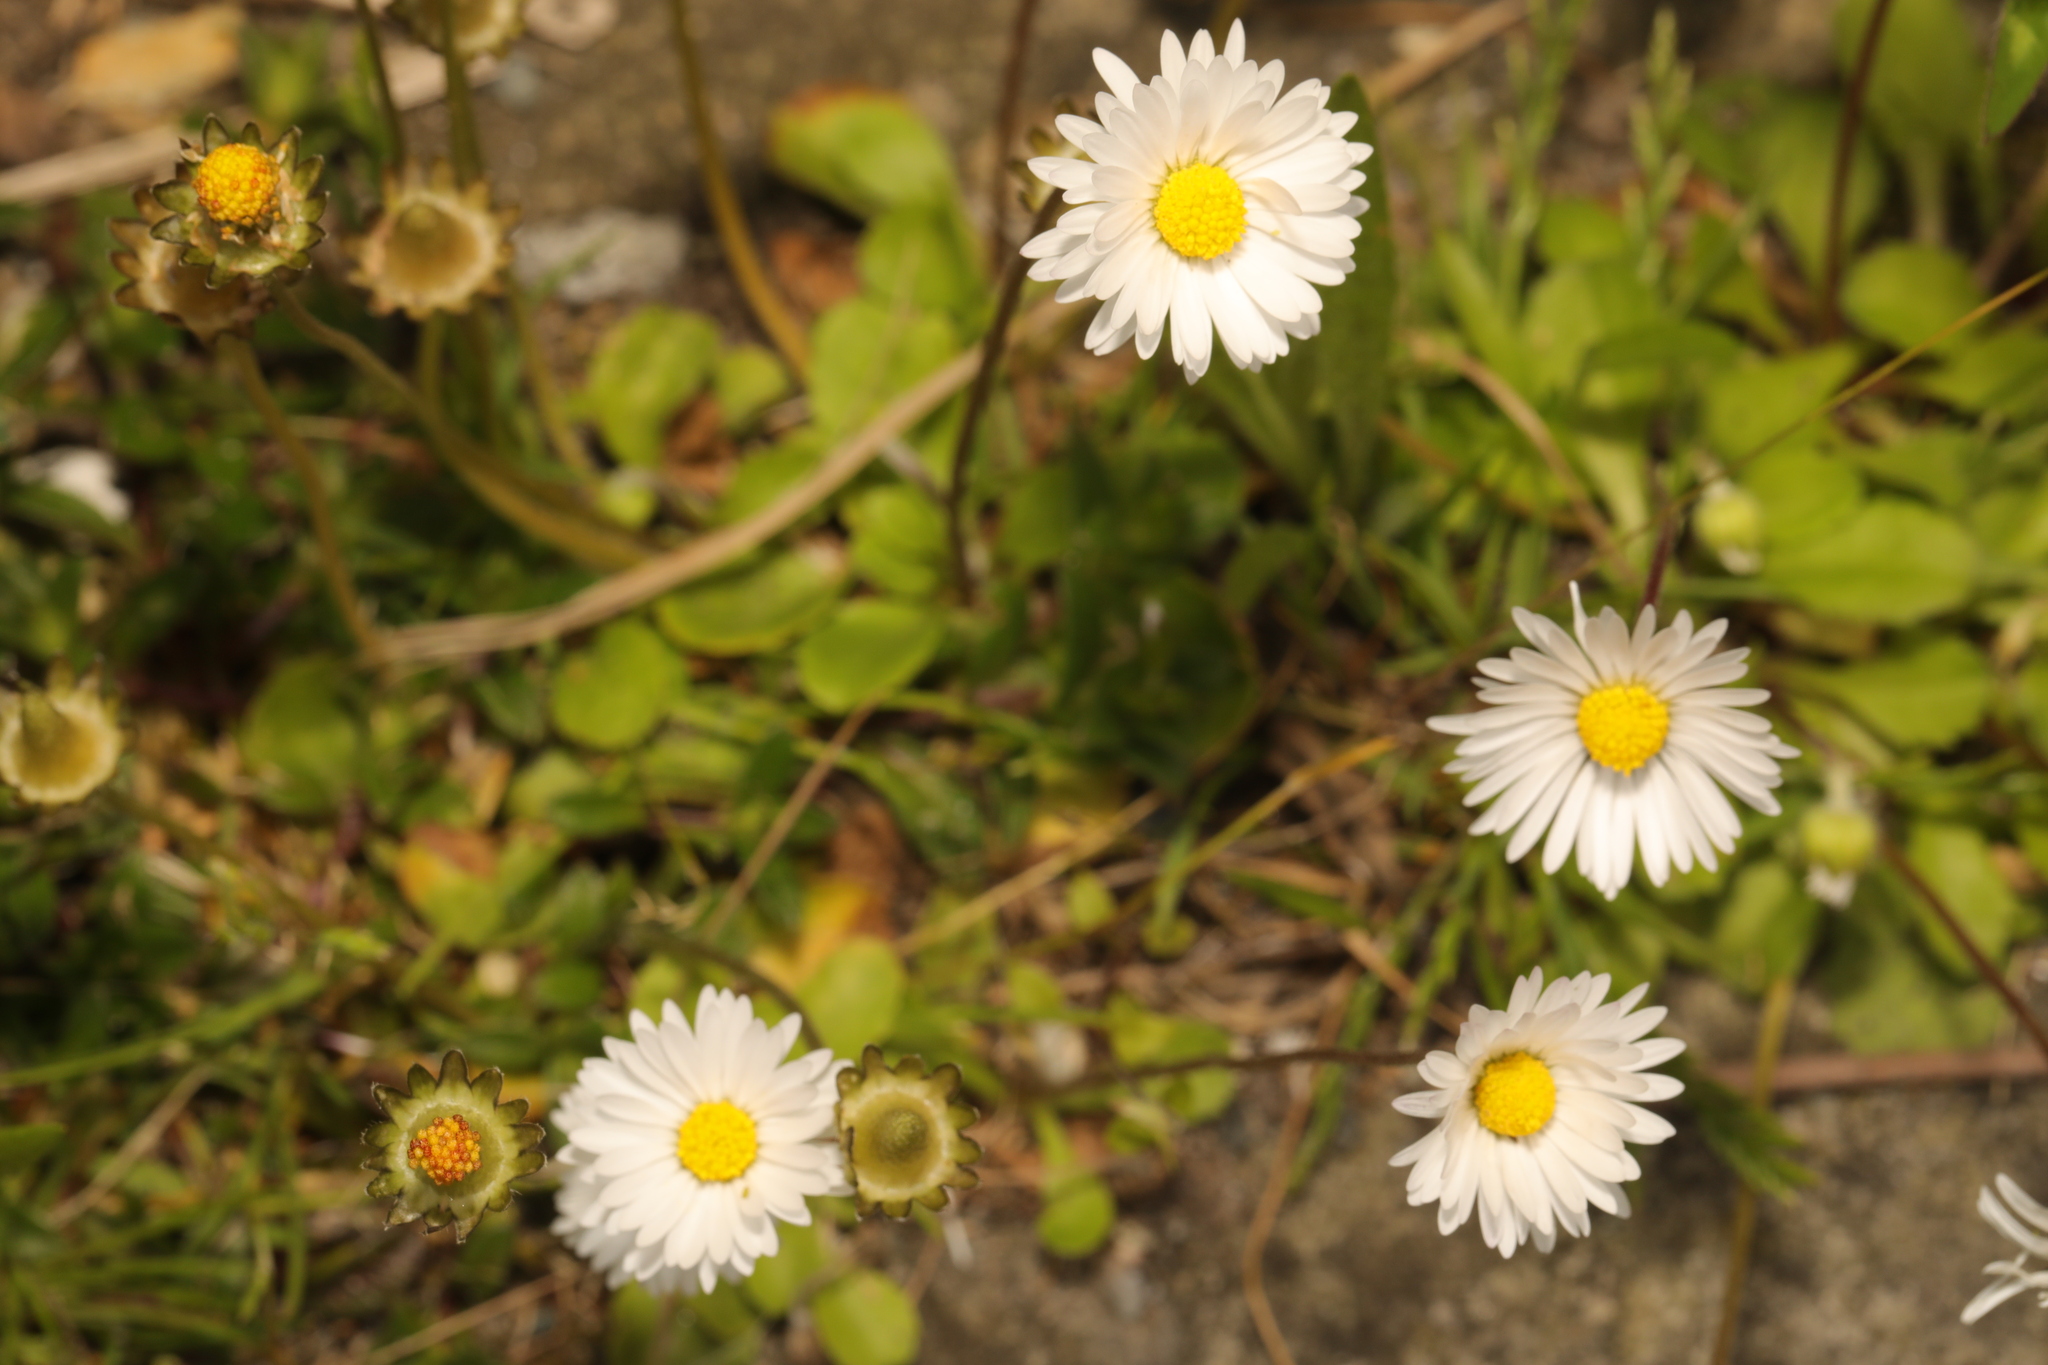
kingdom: Plantae
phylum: Tracheophyta
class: Magnoliopsida
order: Asterales
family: Asteraceae
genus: Bellis
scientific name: Bellis perennis
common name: Lawndaisy
